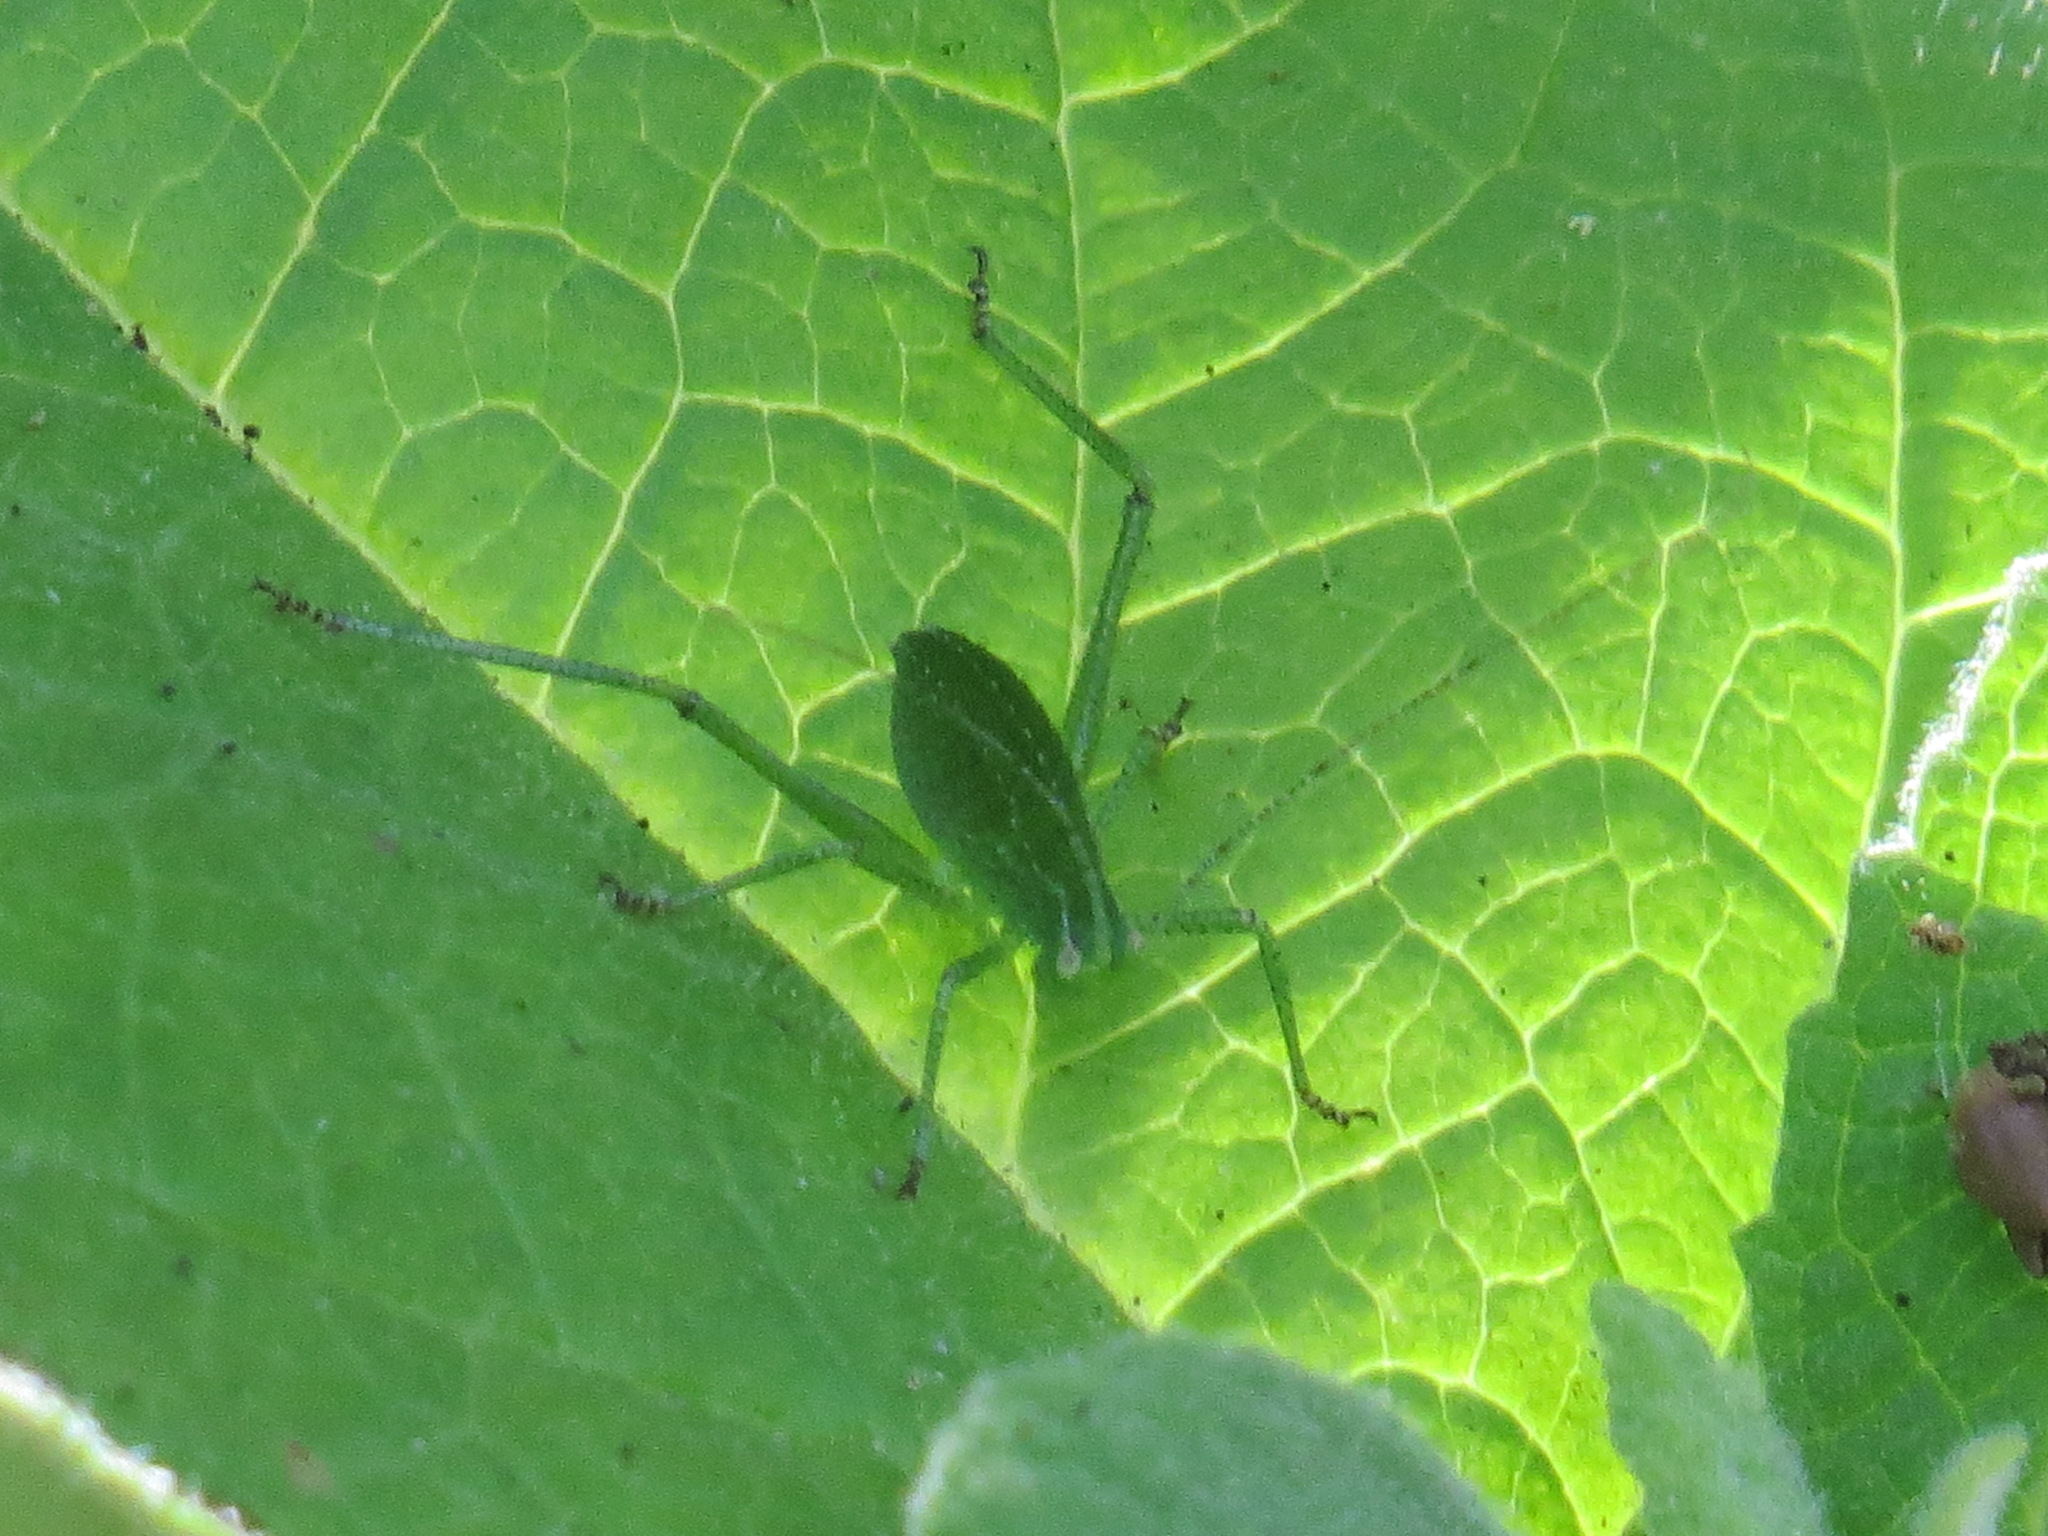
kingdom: Animalia
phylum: Arthropoda
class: Insecta
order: Orthoptera
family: Tettigoniidae
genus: Platylyra
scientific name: Platylyra californica
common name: Chaparral false katydid
